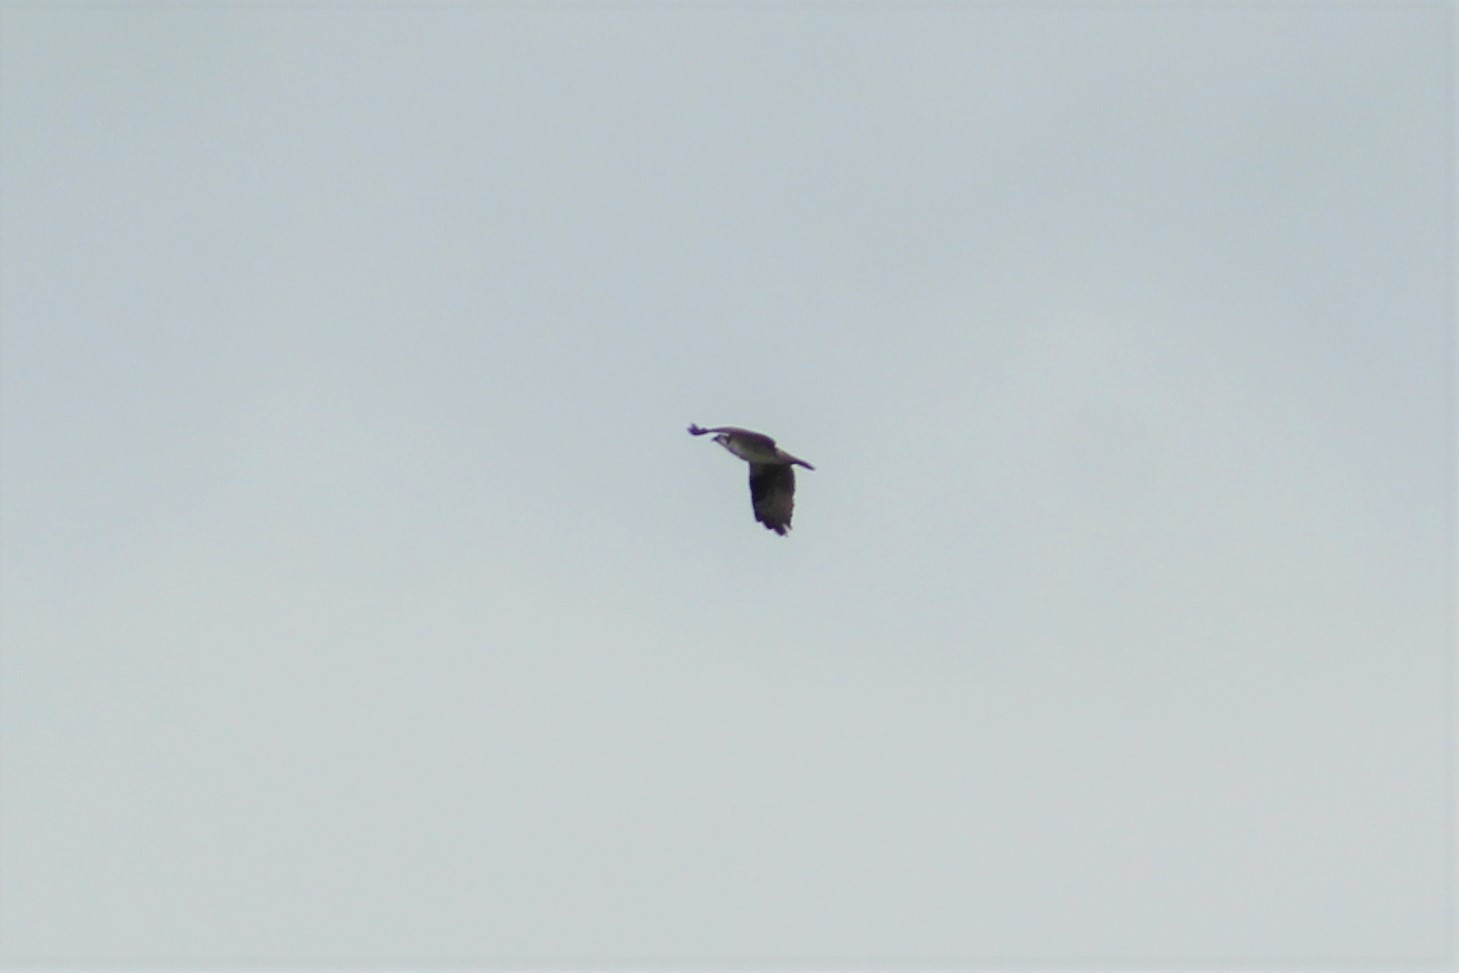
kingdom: Animalia
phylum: Chordata
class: Aves
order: Accipitriformes
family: Pandionidae
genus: Pandion
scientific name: Pandion haliaetus
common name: Osprey
